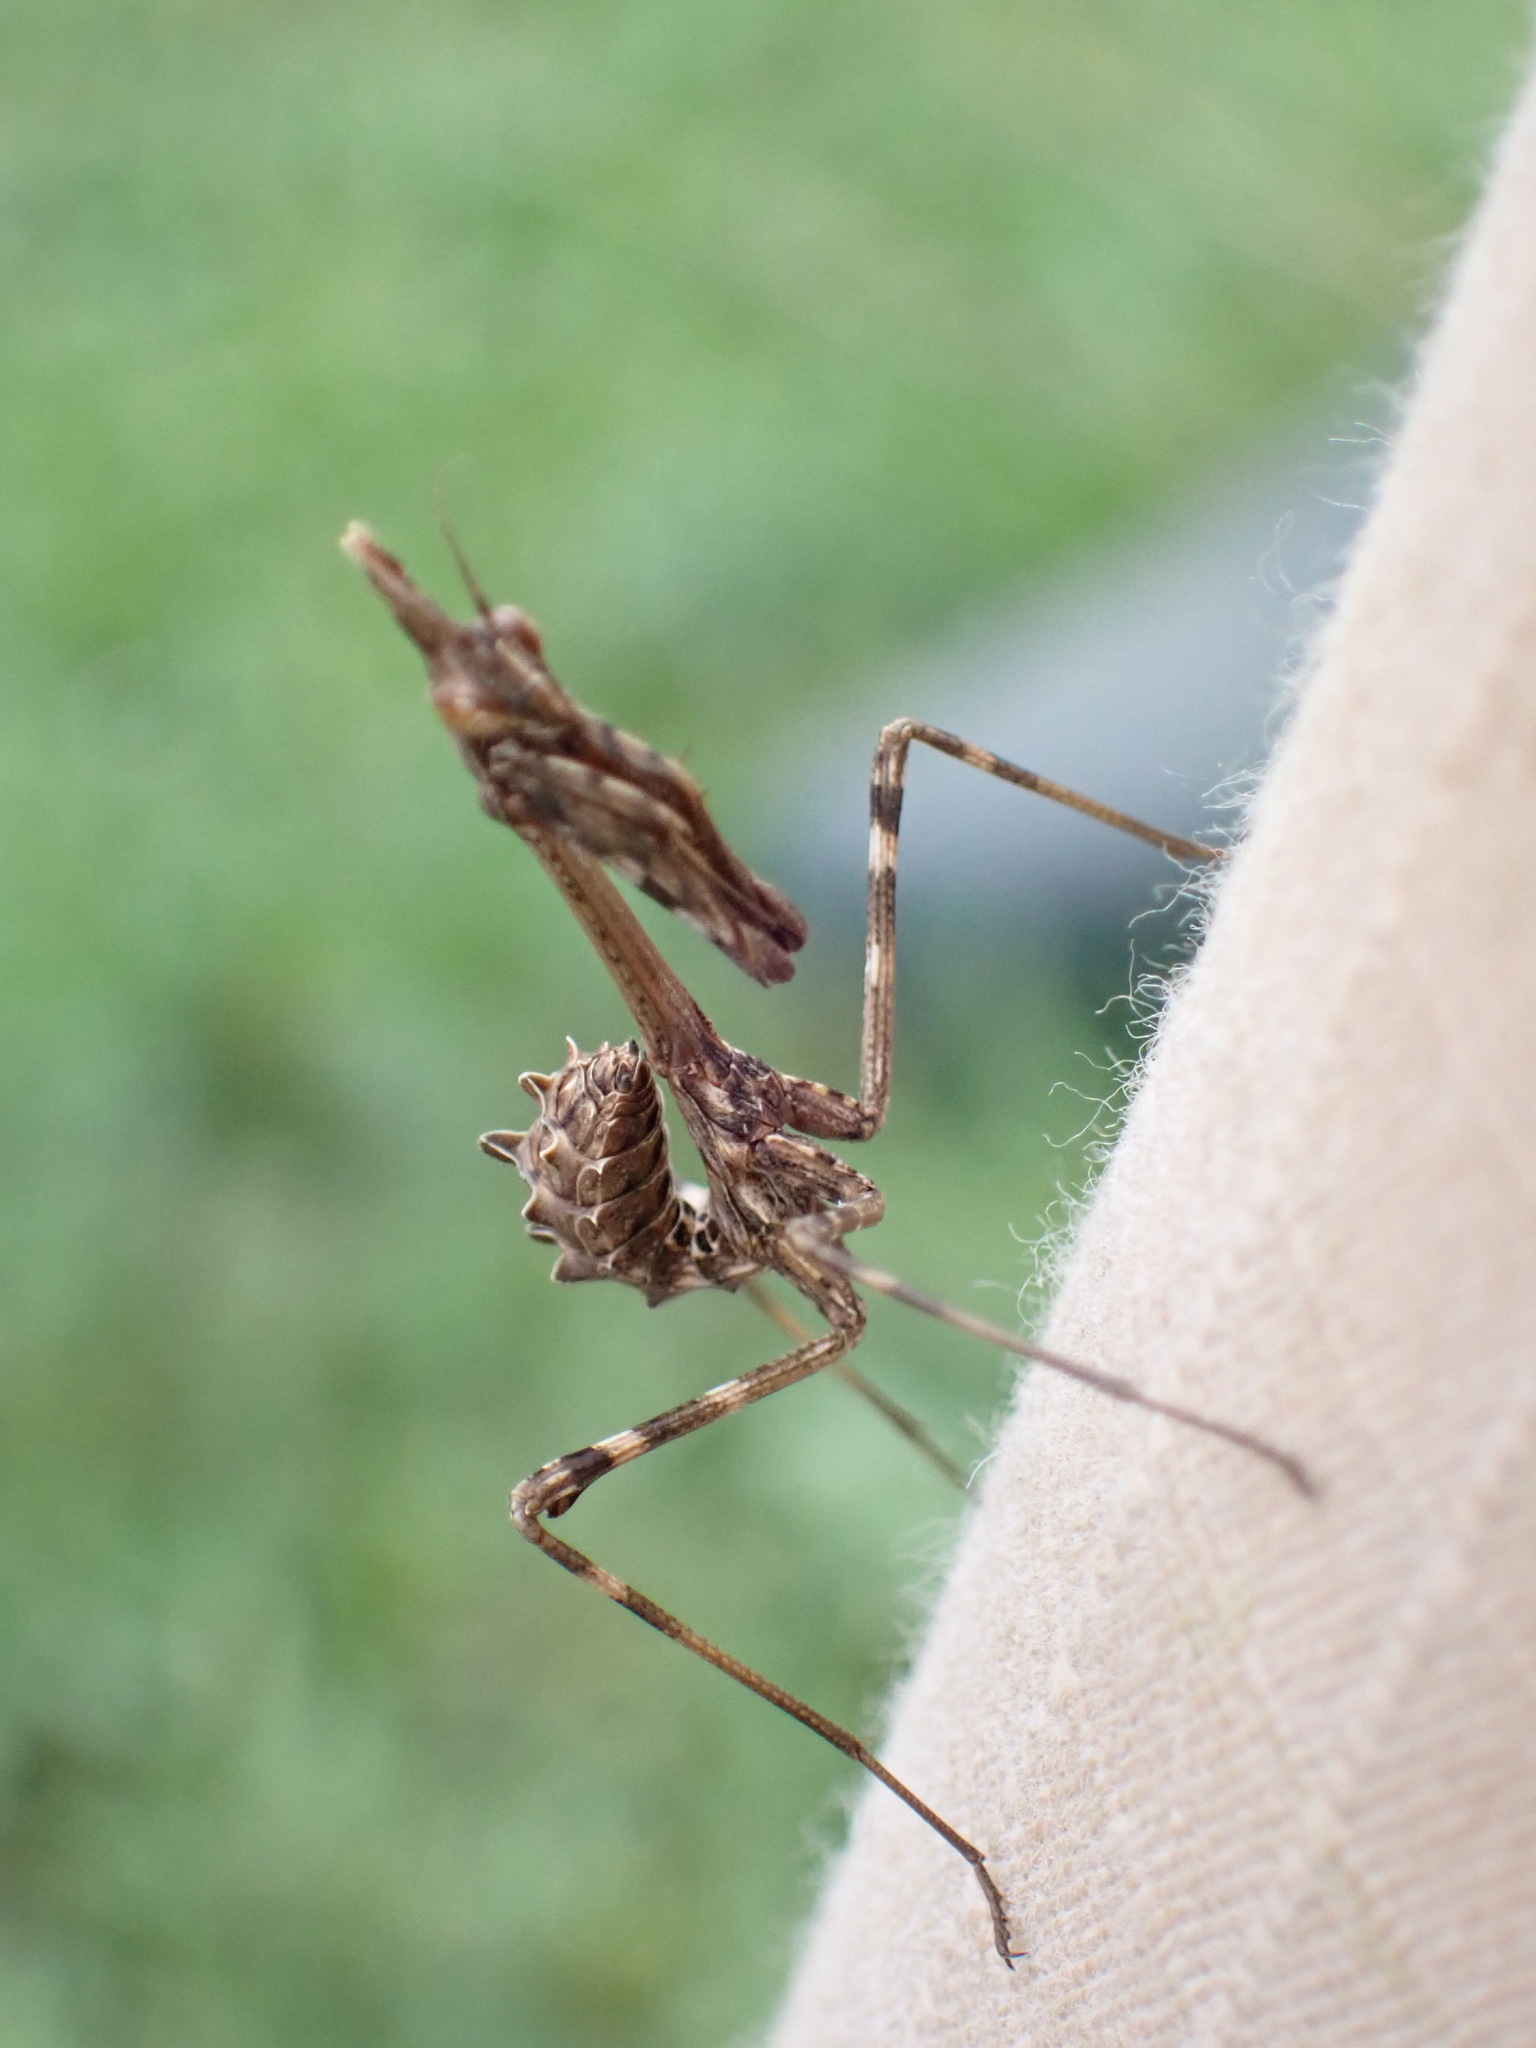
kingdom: Animalia
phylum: Arthropoda
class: Insecta
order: Mantodea
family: Empusidae
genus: Empusa
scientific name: Empusa pennata
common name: Conehead mantis
